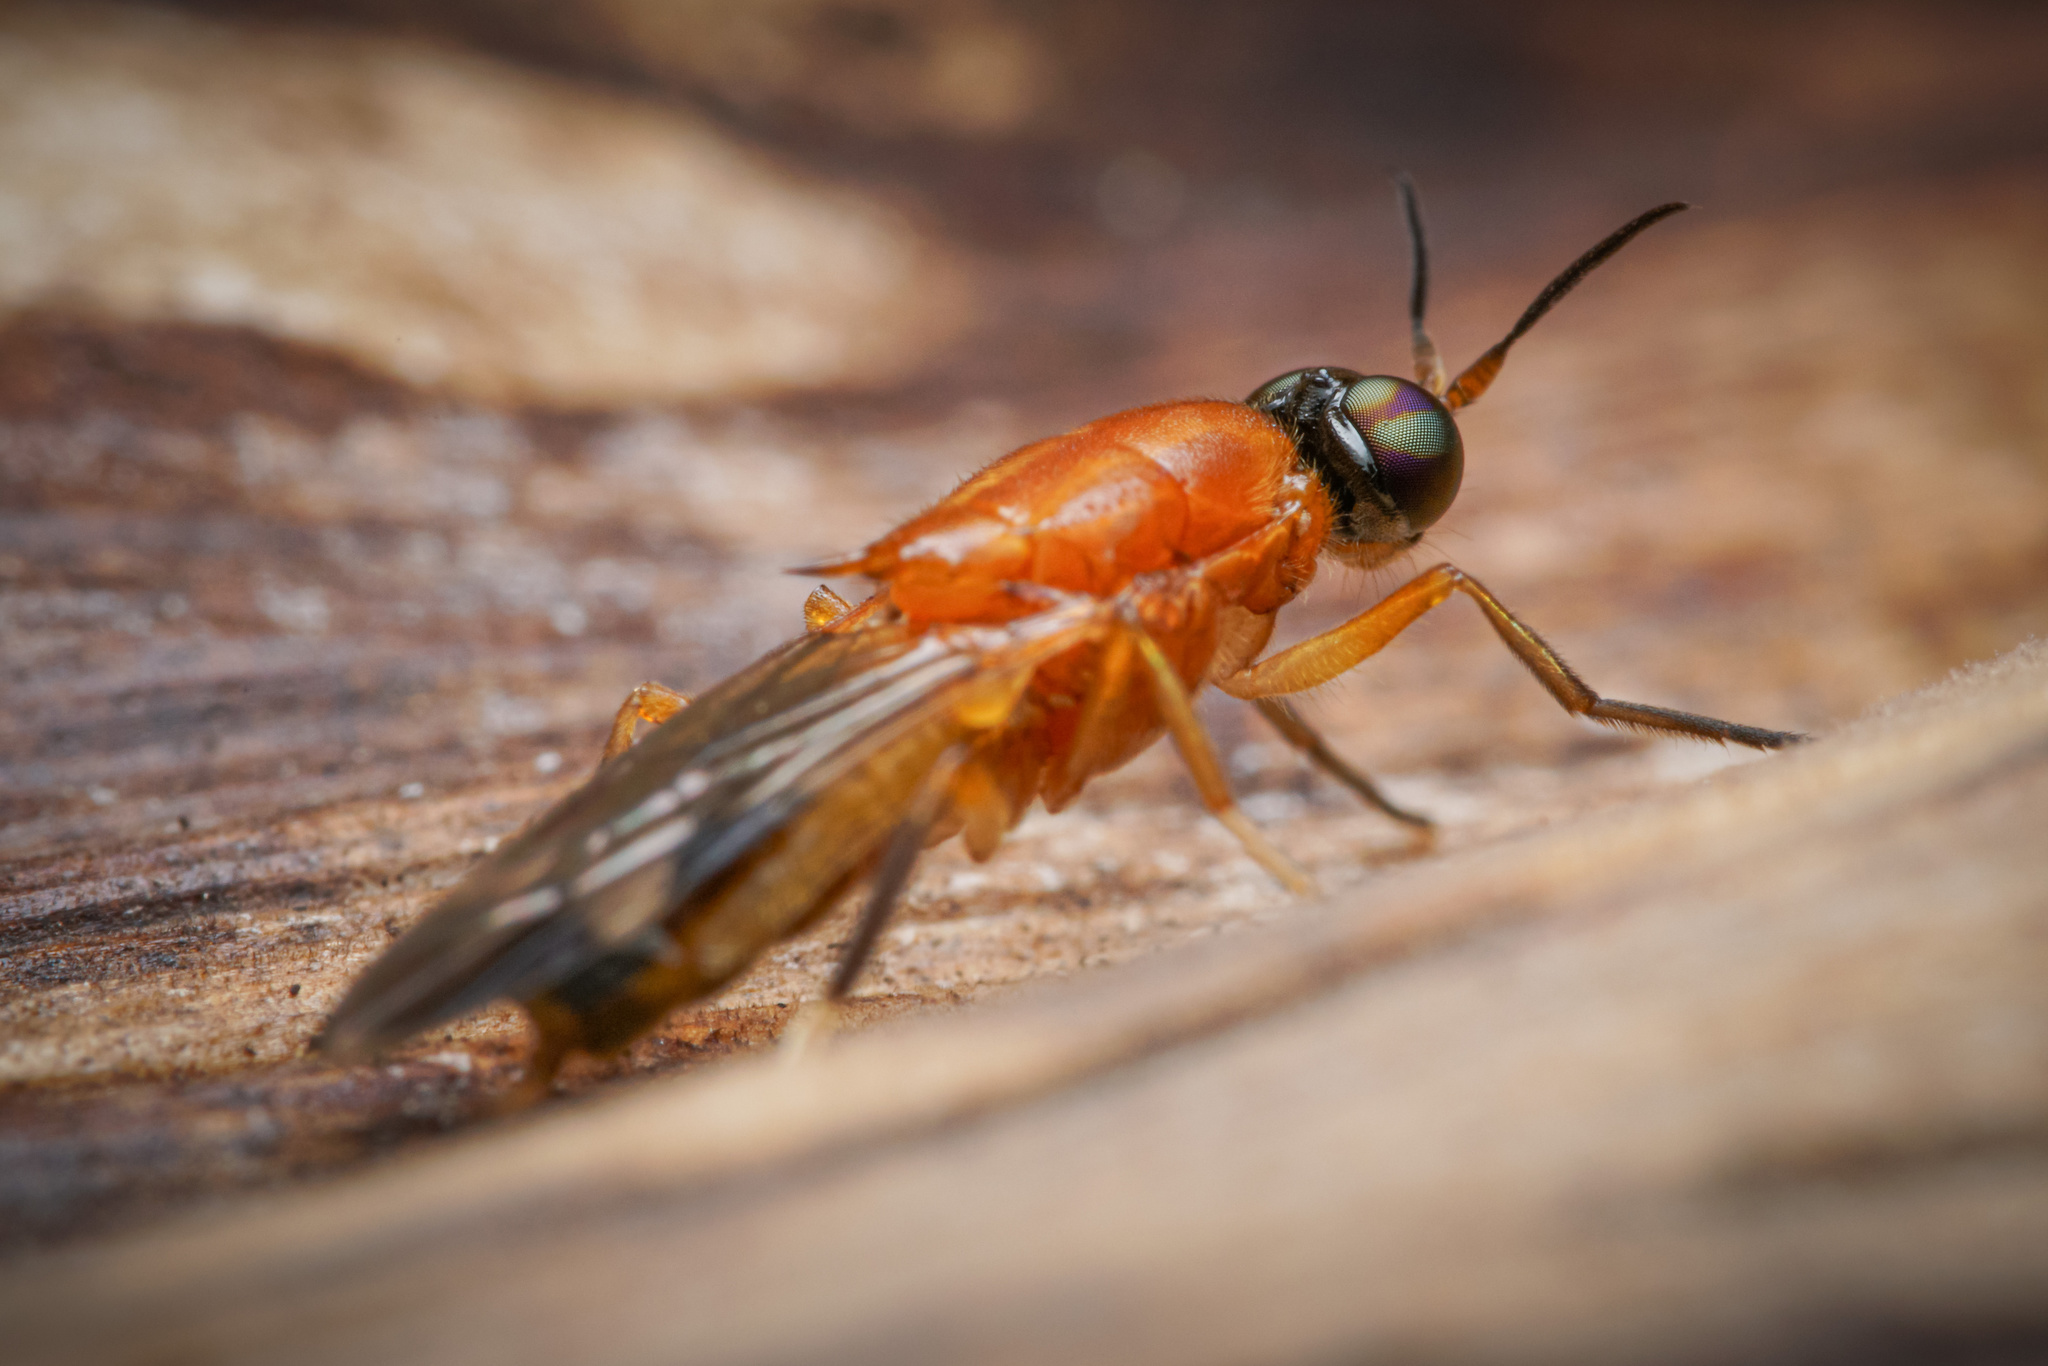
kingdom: Animalia
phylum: Arthropoda
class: Insecta
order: Diptera
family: Stratiomyidae
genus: Rosapha
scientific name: Rosapha habilis
